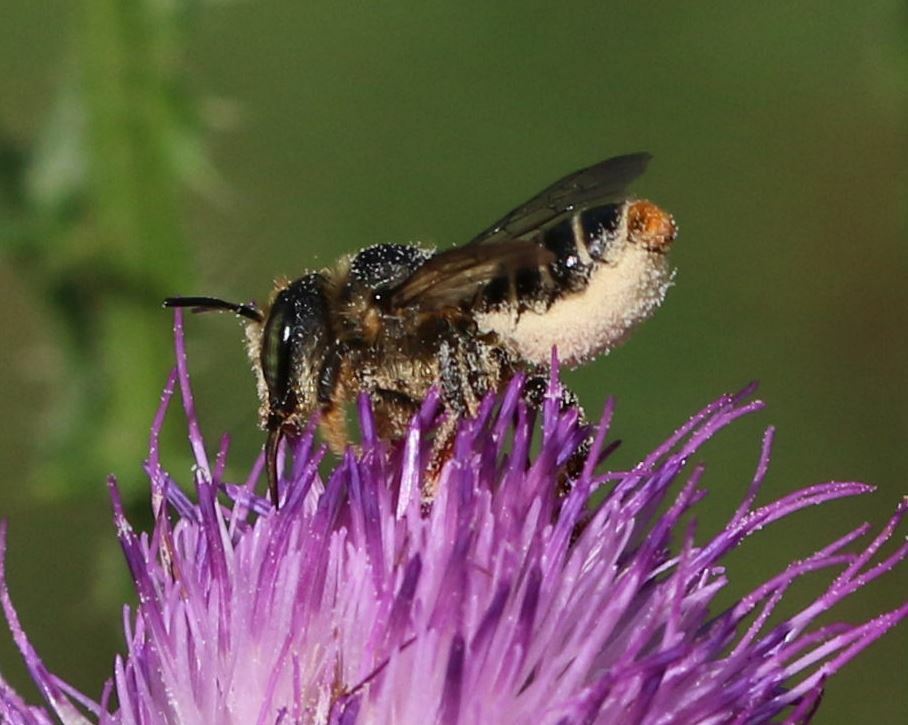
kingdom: Animalia
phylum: Arthropoda
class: Insecta
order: Hymenoptera
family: Megachilidae
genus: Lithurgus
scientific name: Lithurgus chrysurus
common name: Wood-boring bee
